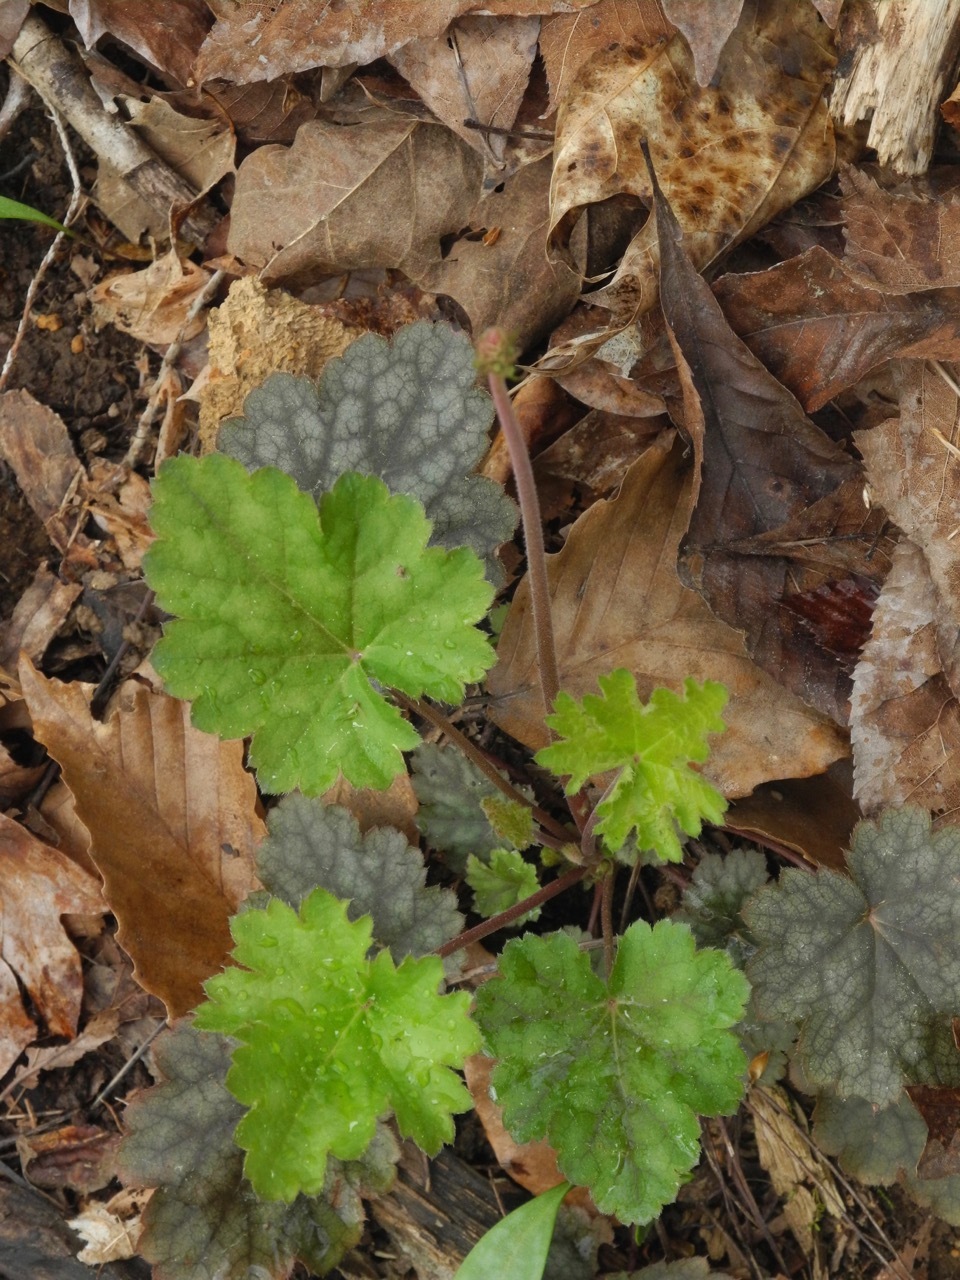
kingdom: Plantae
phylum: Tracheophyta
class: Magnoliopsida
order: Saxifragales
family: Saxifragaceae
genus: Heuchera
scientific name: Heuchera americana
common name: Alumroot
